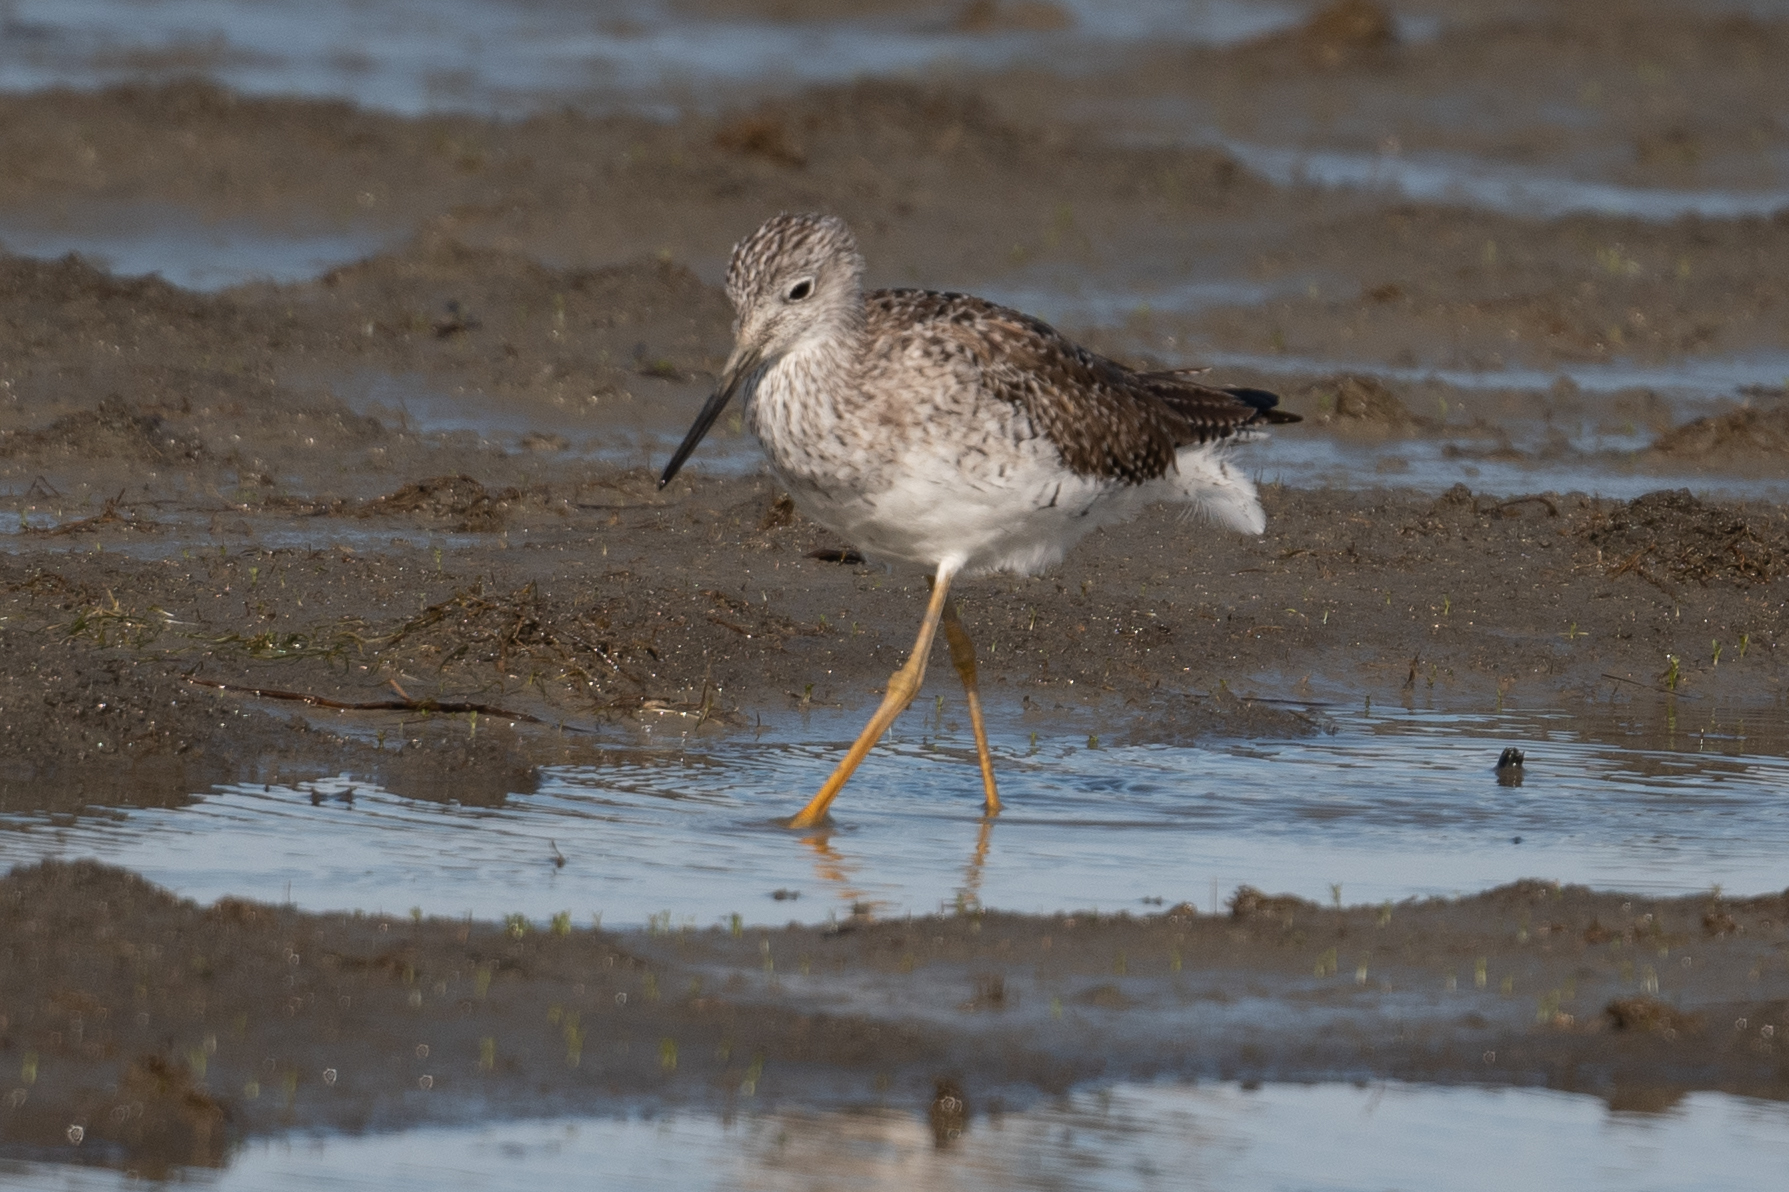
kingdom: Animalia
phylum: Chordata
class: Aves
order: Charadriiformes
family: Scolopacidae
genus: Tringa
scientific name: Tringa melanoleuca
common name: Greater yellowlegs
